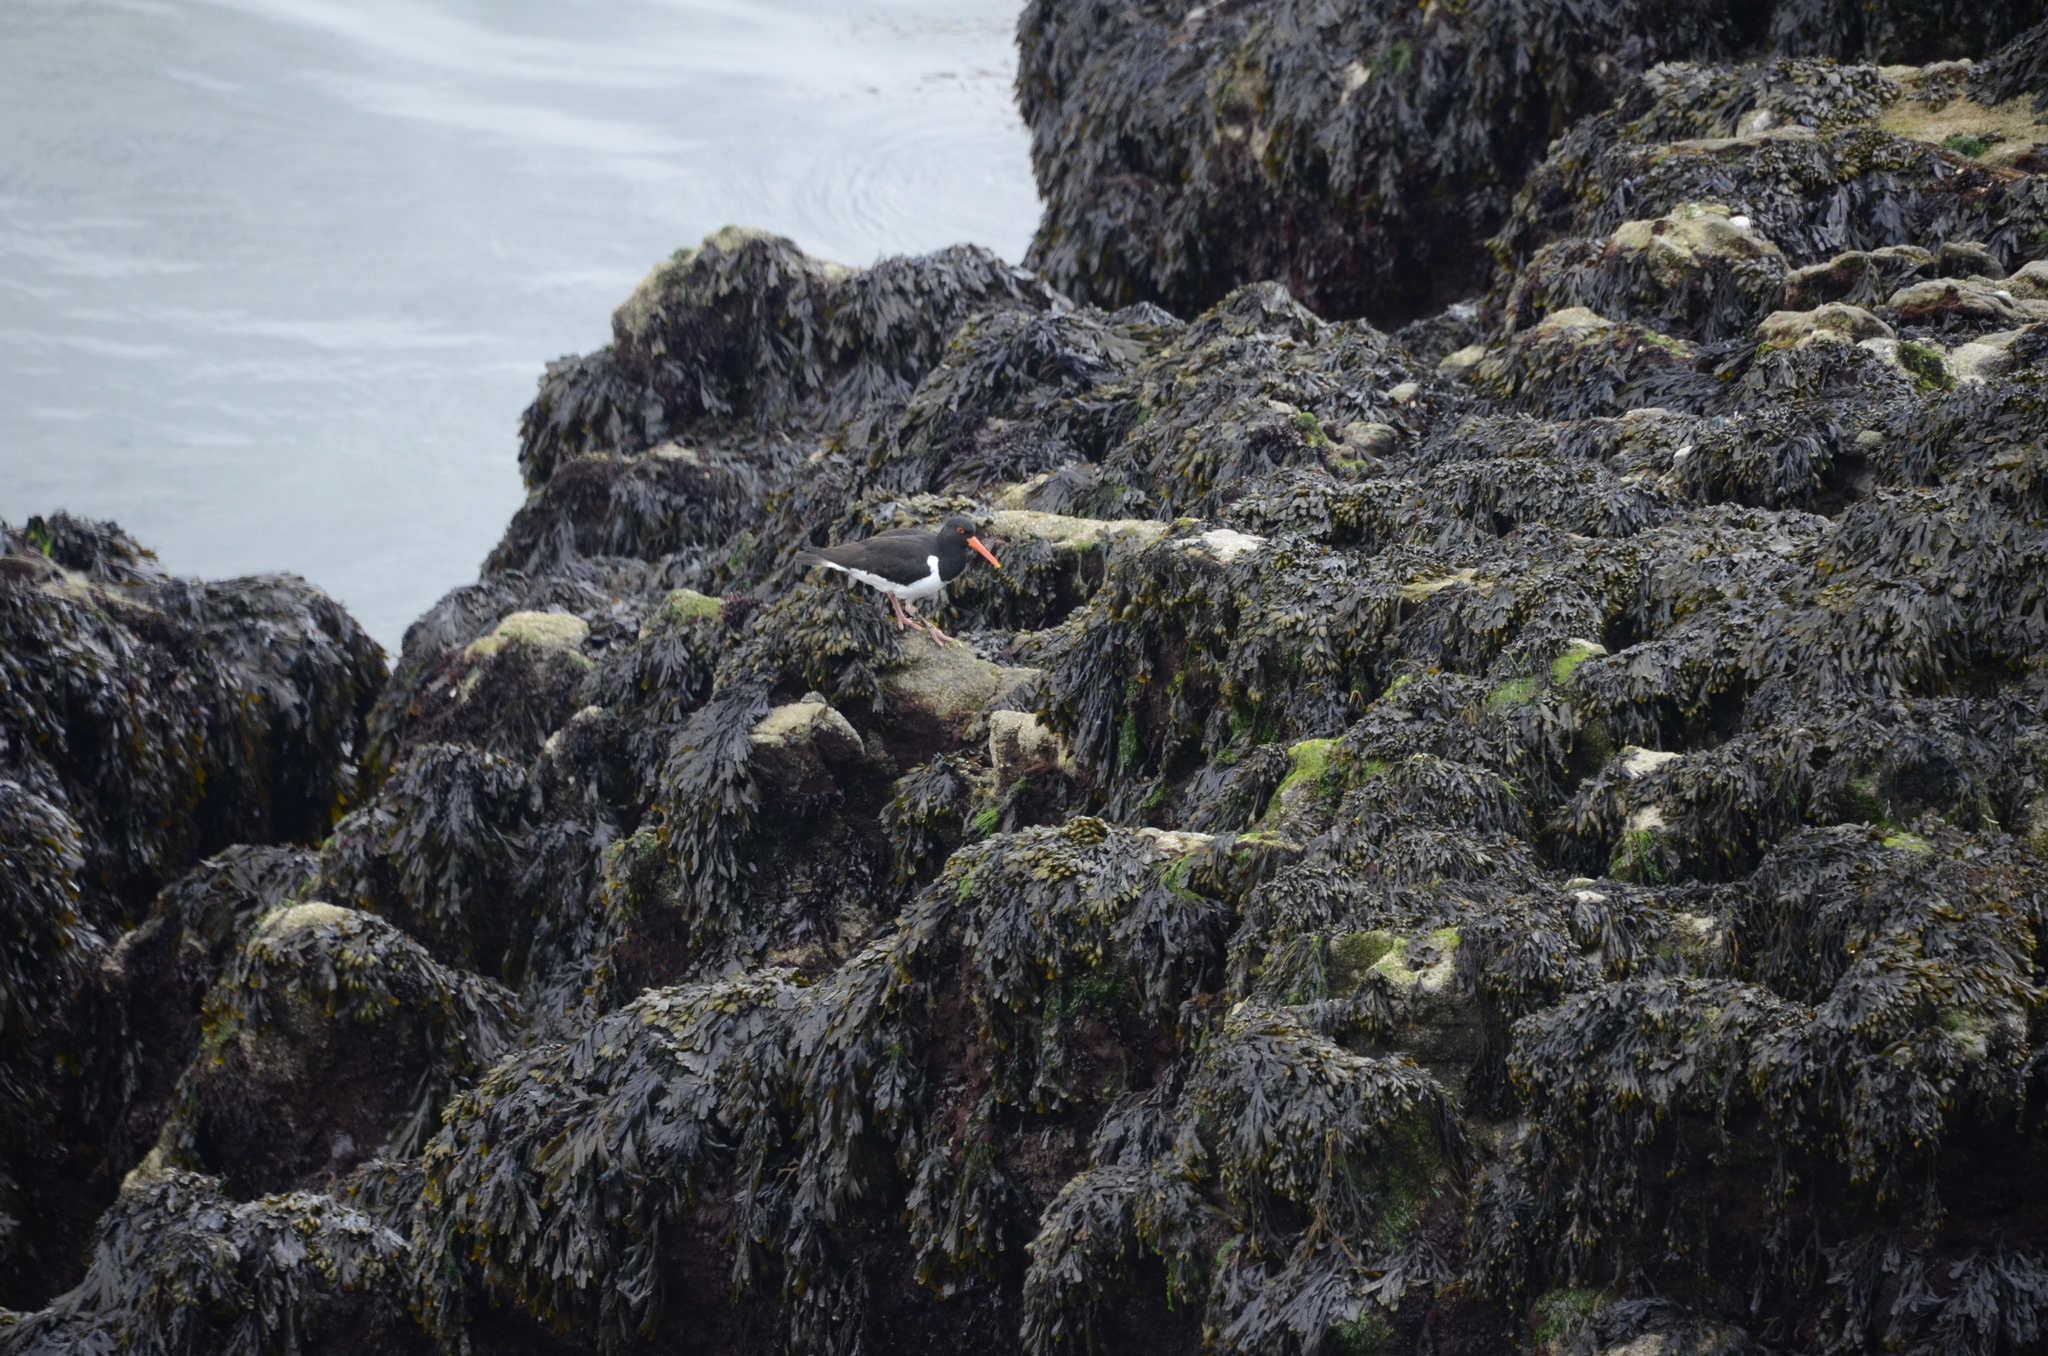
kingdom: Animalia
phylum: Chordata
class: Aves
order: Charadriiformes
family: Haematopodidae
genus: Haematopus
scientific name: Haematopus ostralegus
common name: Eurasian oystercatcher
